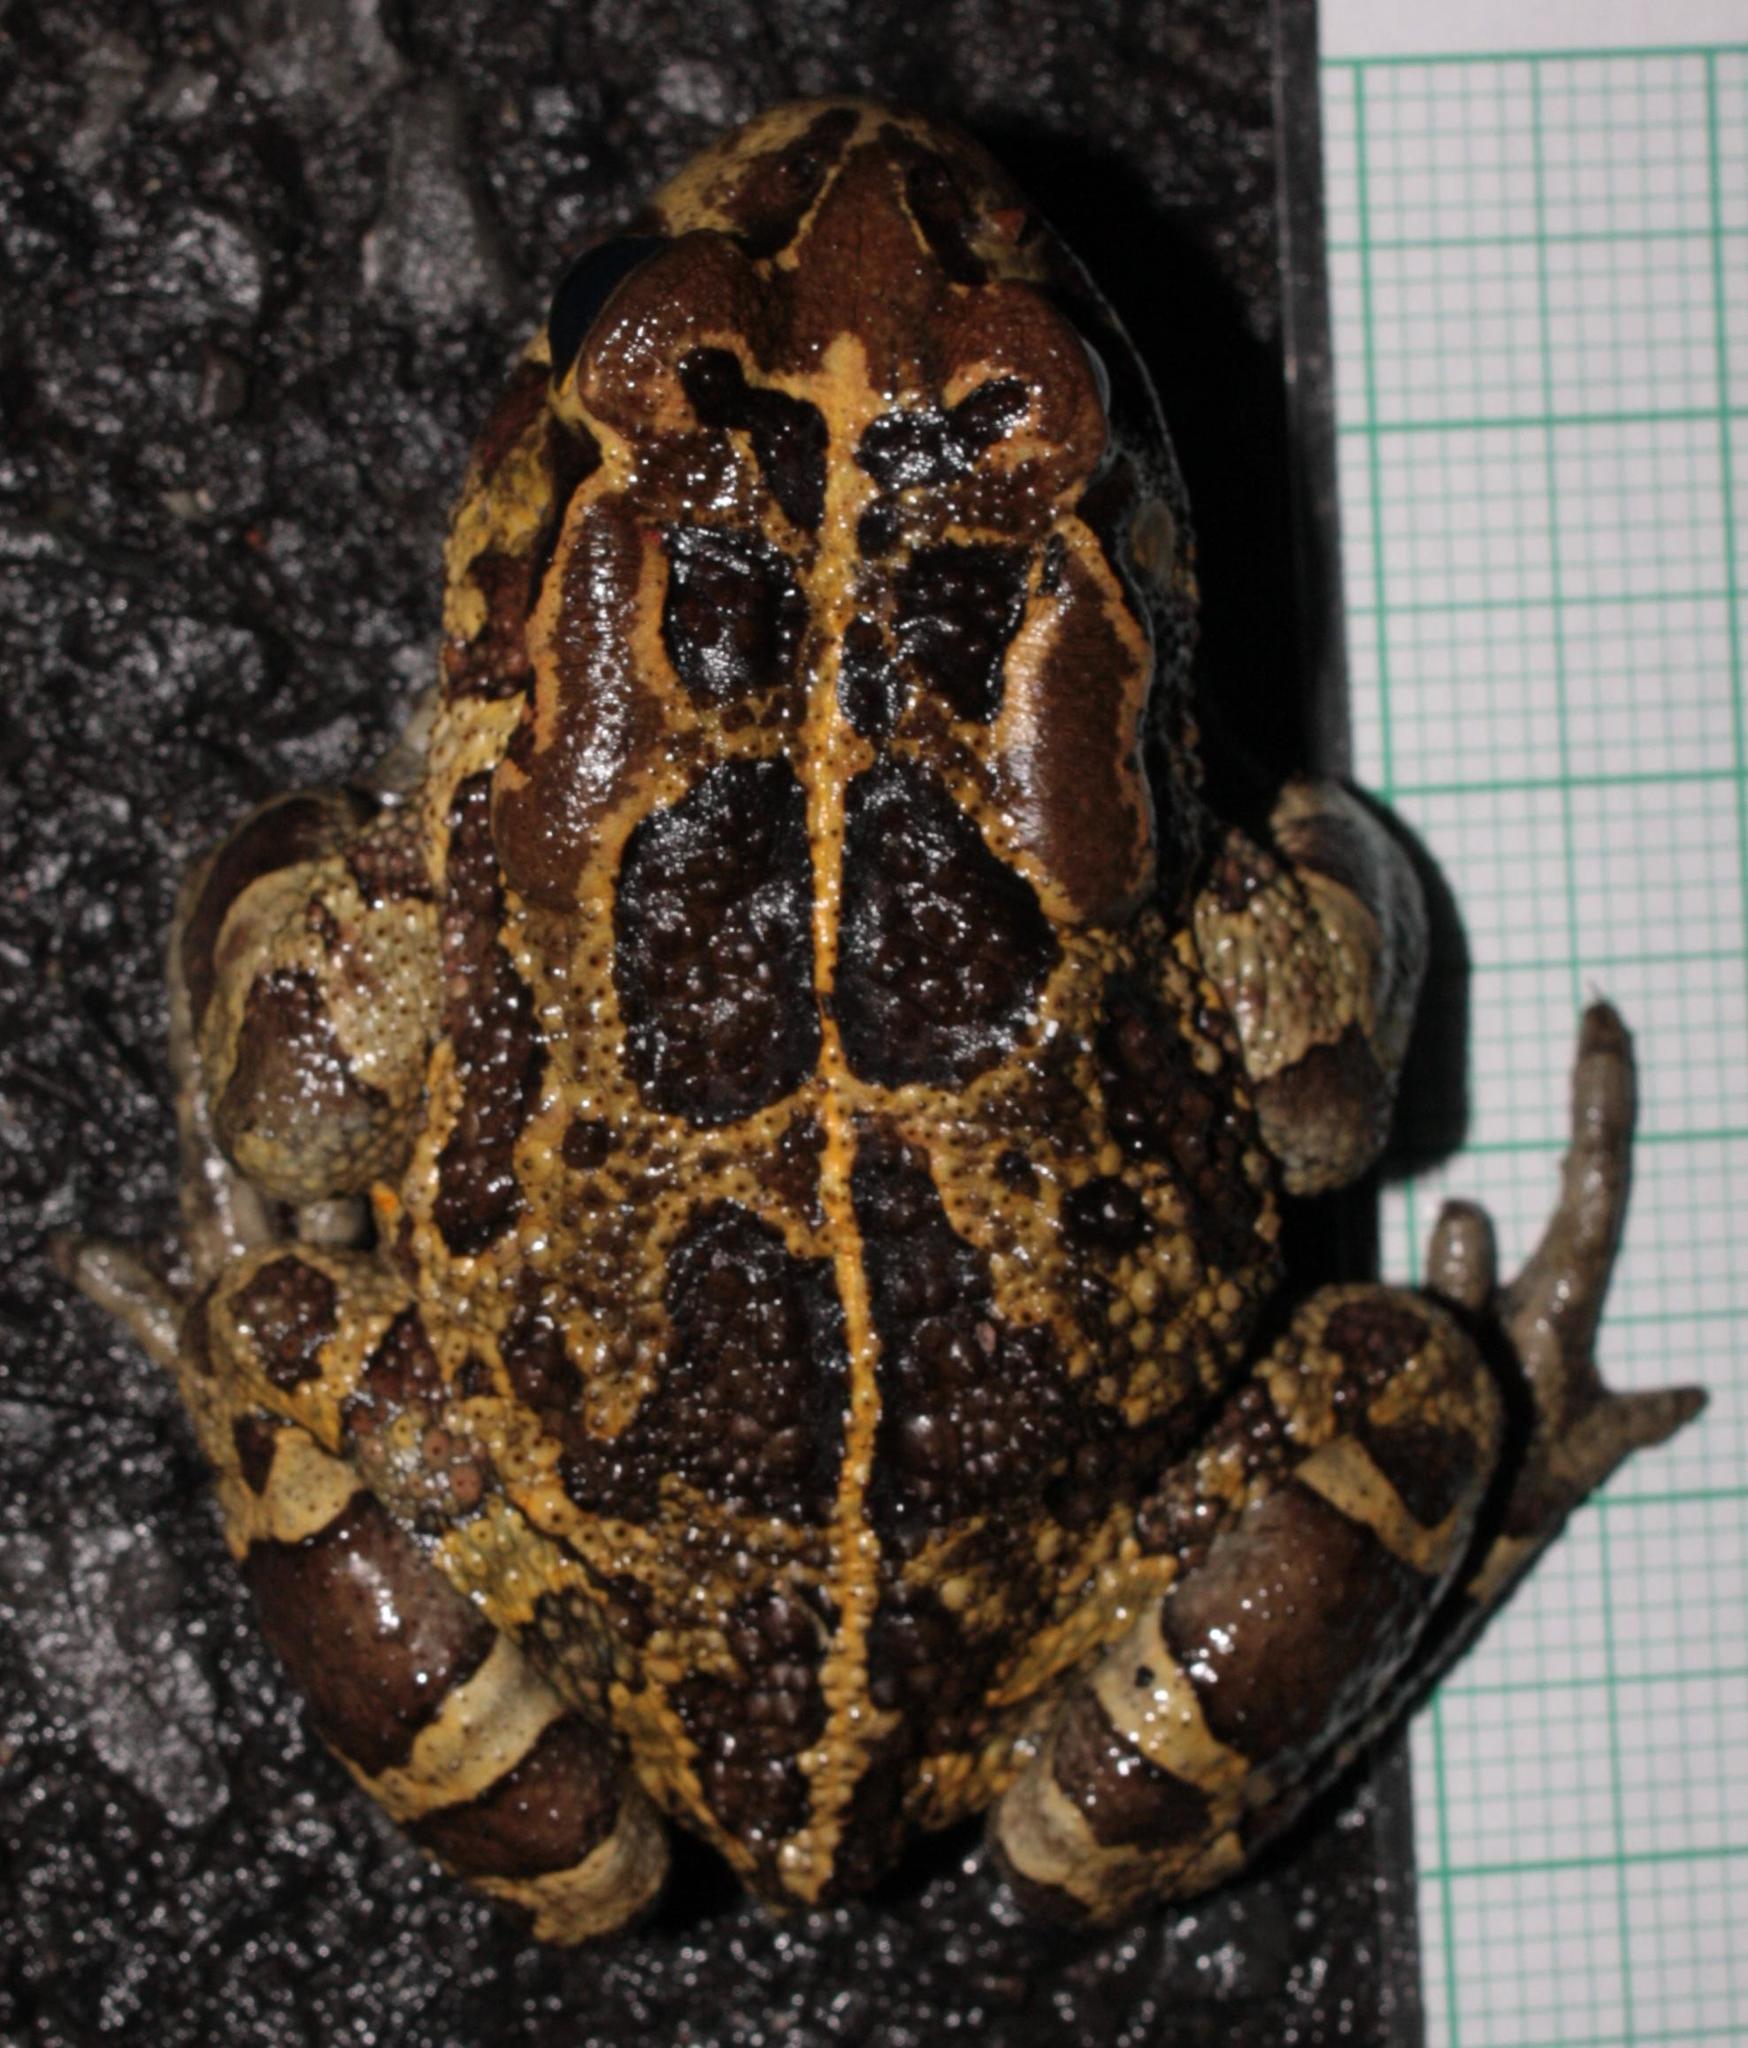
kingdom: Animalia
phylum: Chordata
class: Amphibia
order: Anura
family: Bufonidae
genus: Sclerophrys
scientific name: Sclerophrys pantherina
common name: Panther toad
